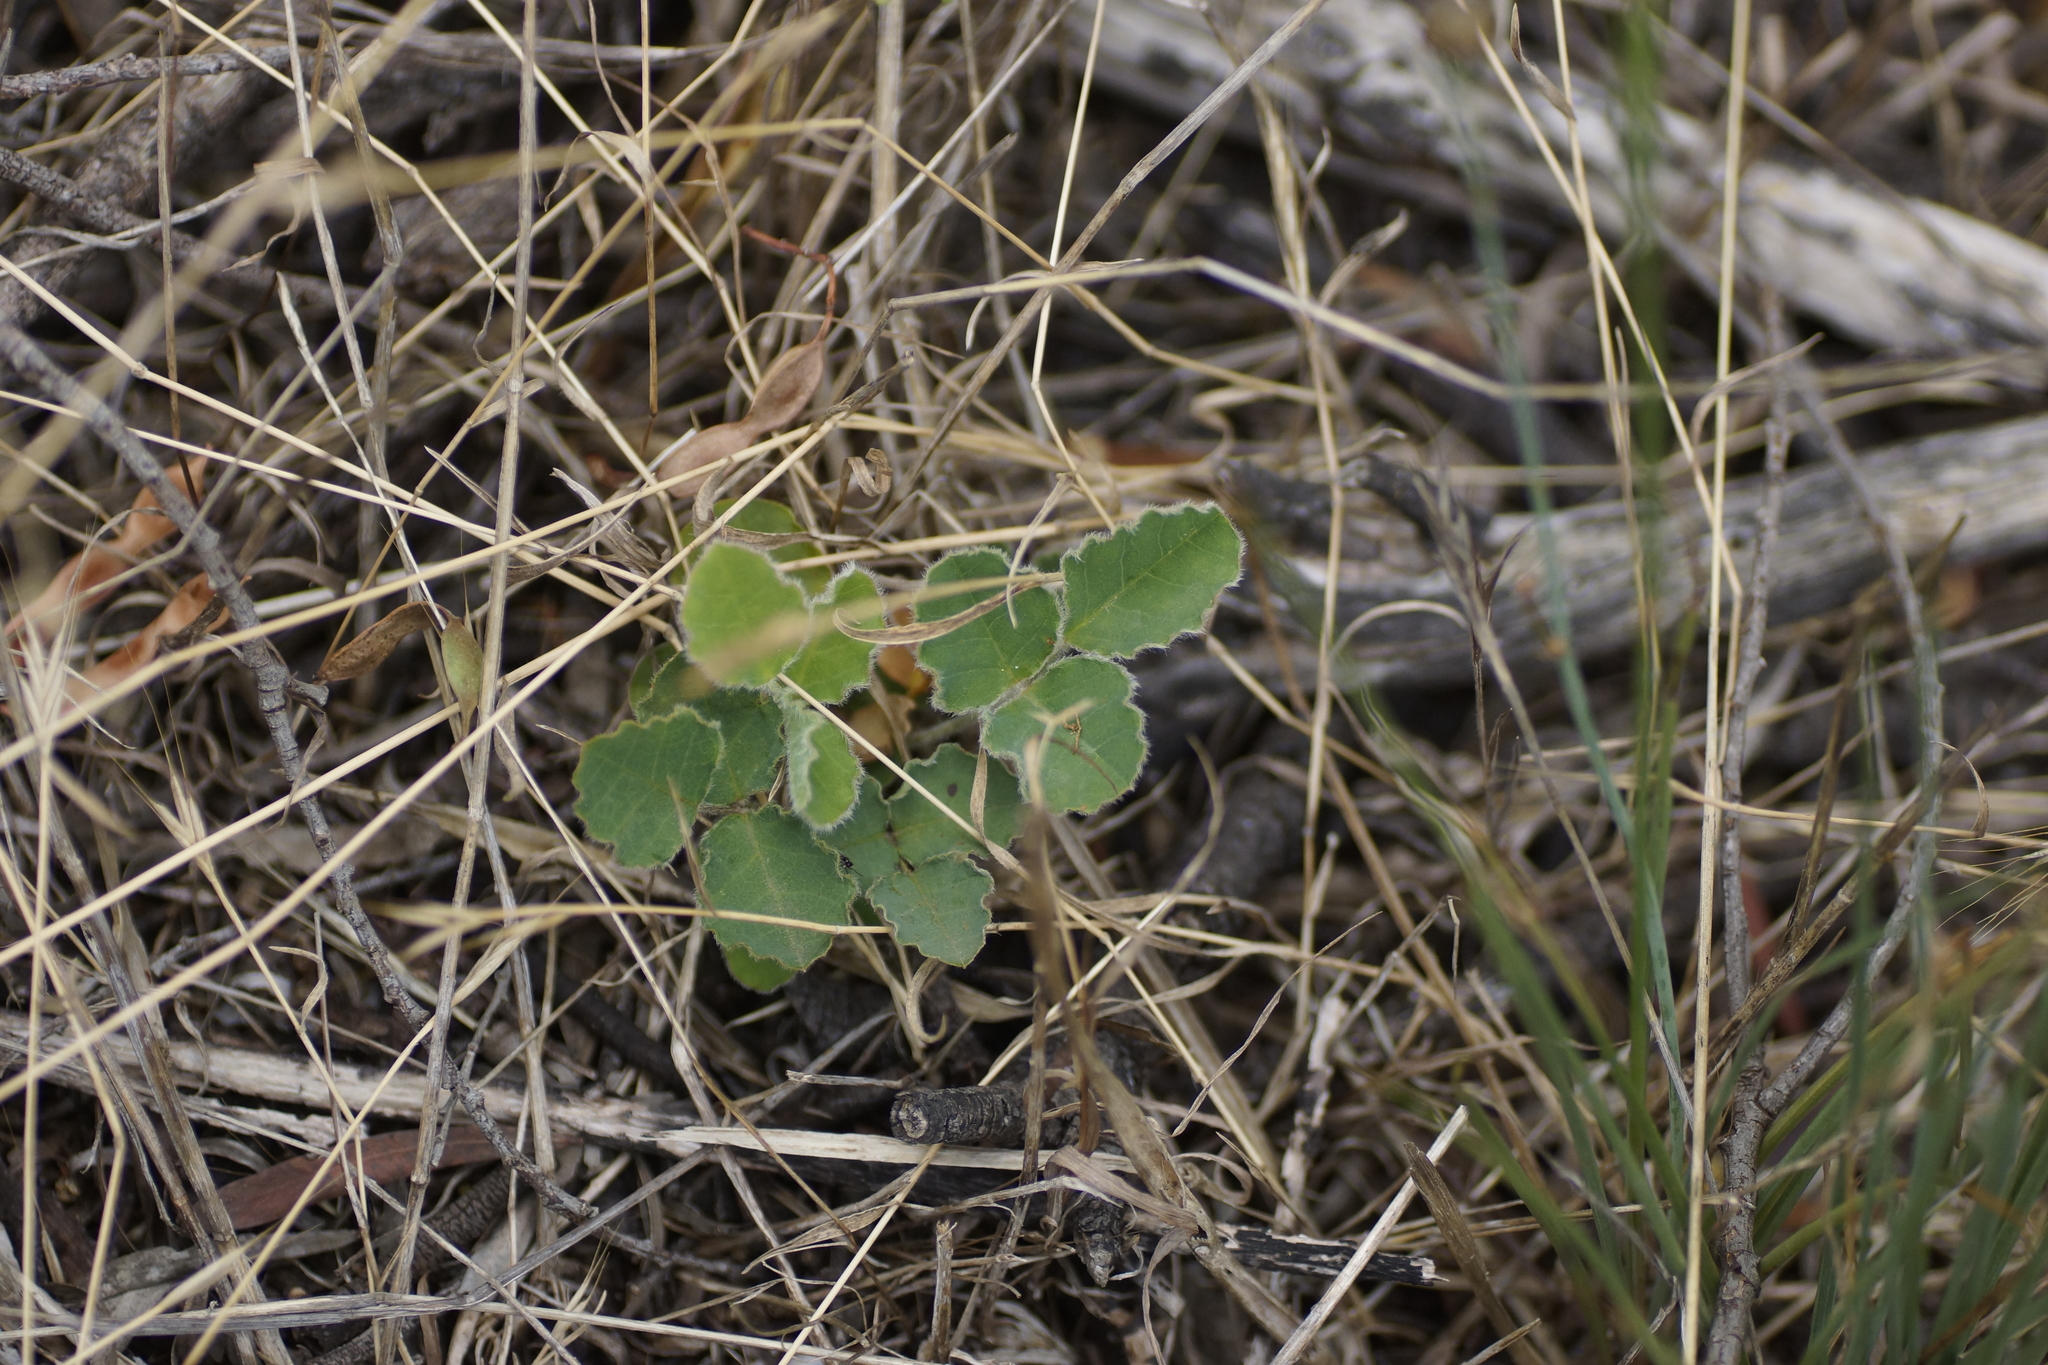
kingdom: Plantae
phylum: Tracheophyta
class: Magnoliopsida
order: Fabales
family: Fabaceae
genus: Kennedia
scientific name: Kennedia prostrata
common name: Running-postman
